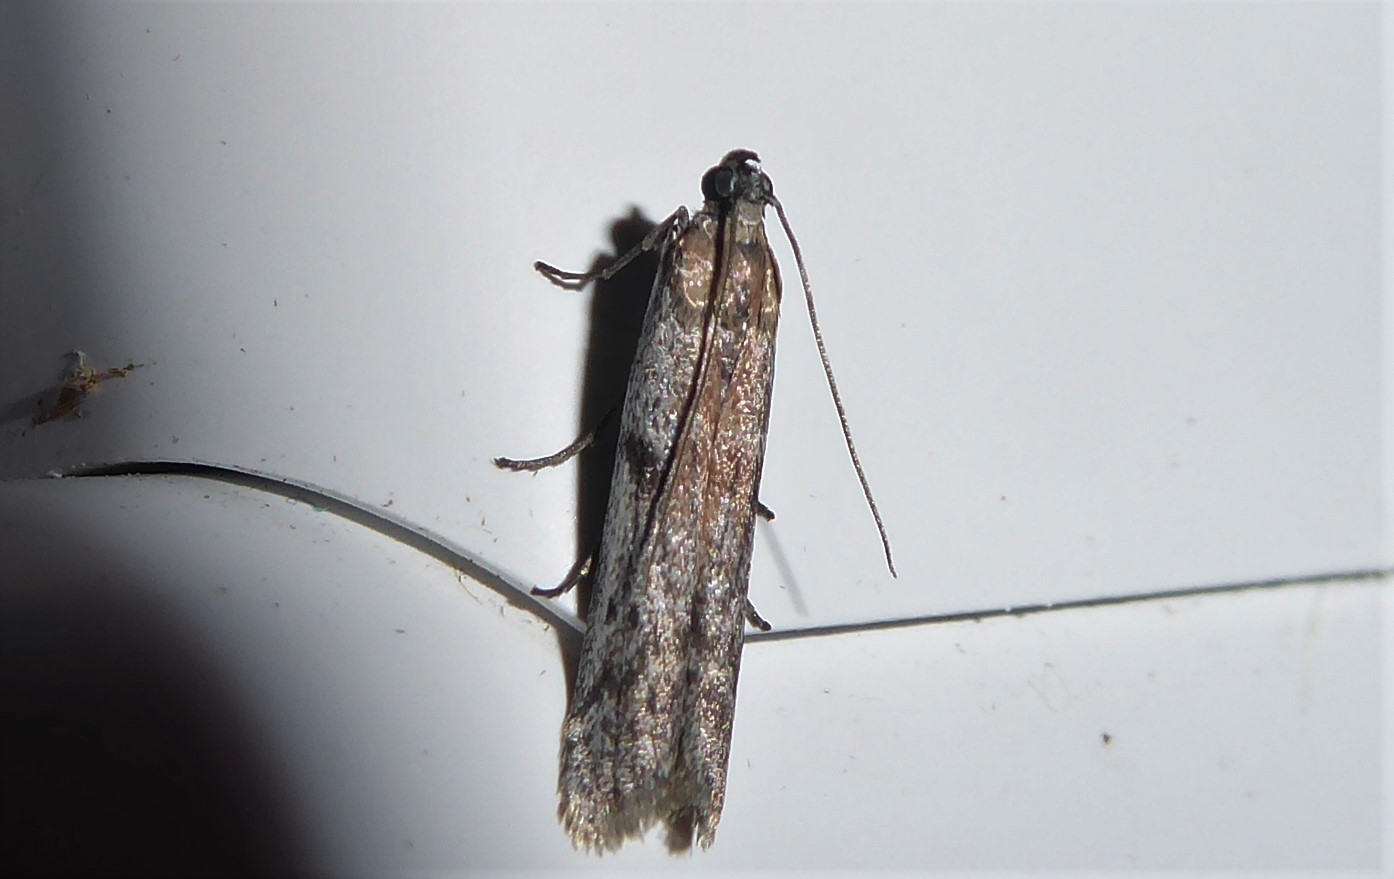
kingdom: Animalia
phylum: Arthropoda
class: Insecta
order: Lepidoptera
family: Pyralidae
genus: Patagoniodes
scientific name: Patagoniodes farinaria
